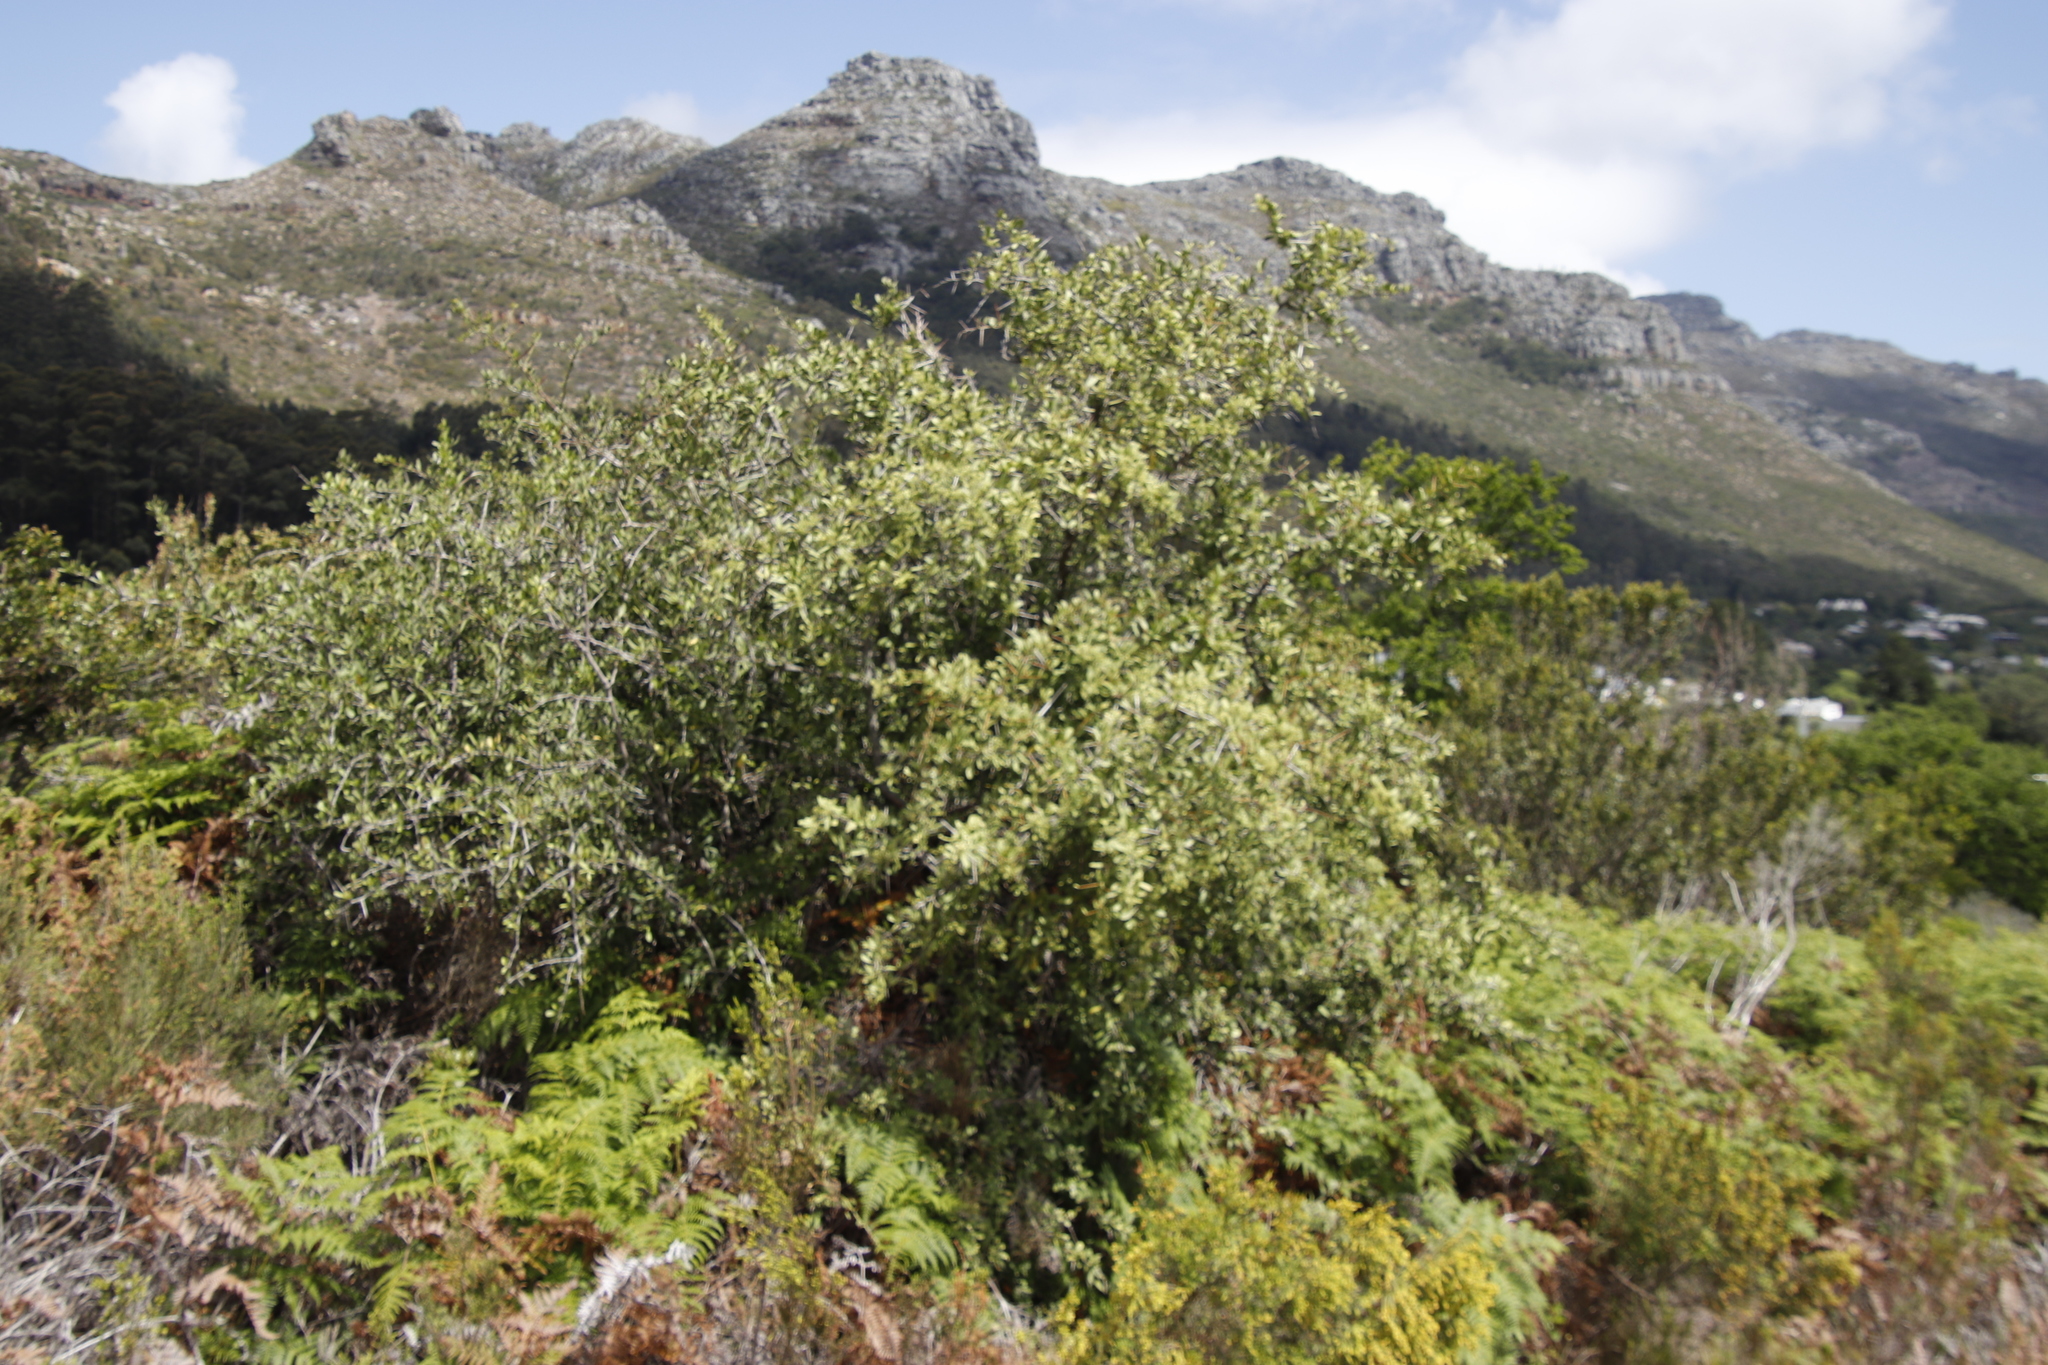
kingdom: Plantae
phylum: Tracheophyta
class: Magnoliopsida
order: Celastrales
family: Celastraceae
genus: Gymnosporia
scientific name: Gymnosporia buxifolia
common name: Common spike-thorn
